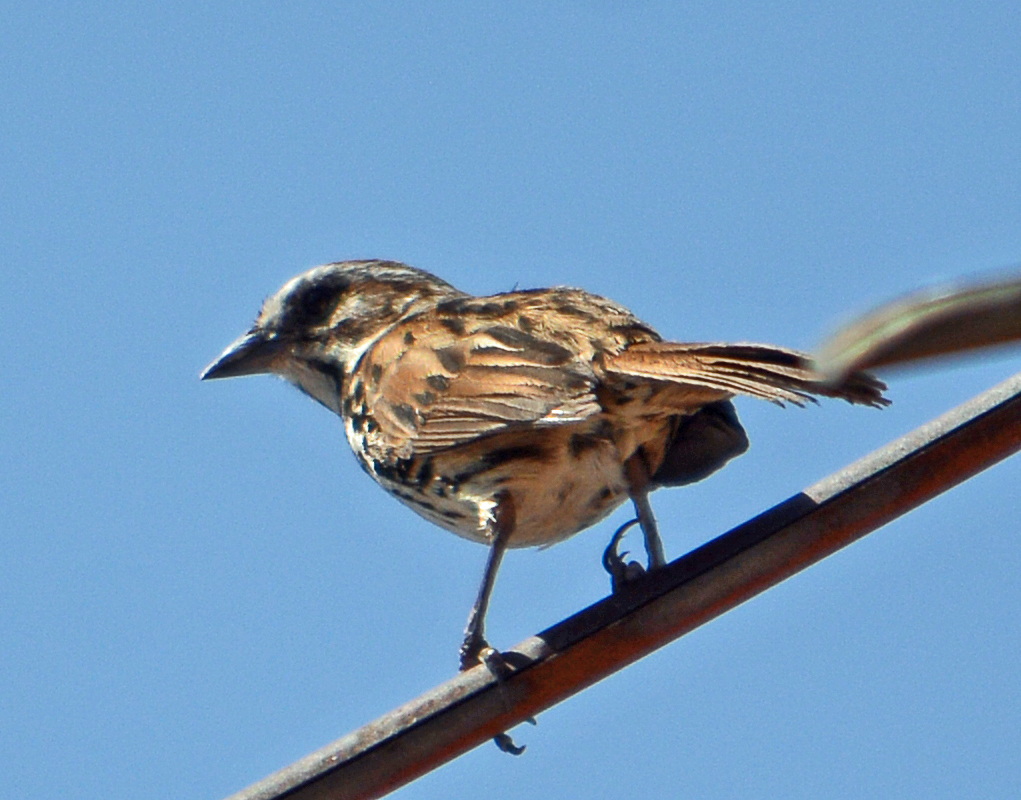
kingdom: Animalia
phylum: Chordata
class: Aves
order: Passeriformes
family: Passerellidae
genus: Melospiza
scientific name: Melospiza melodia
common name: Song sparrow
